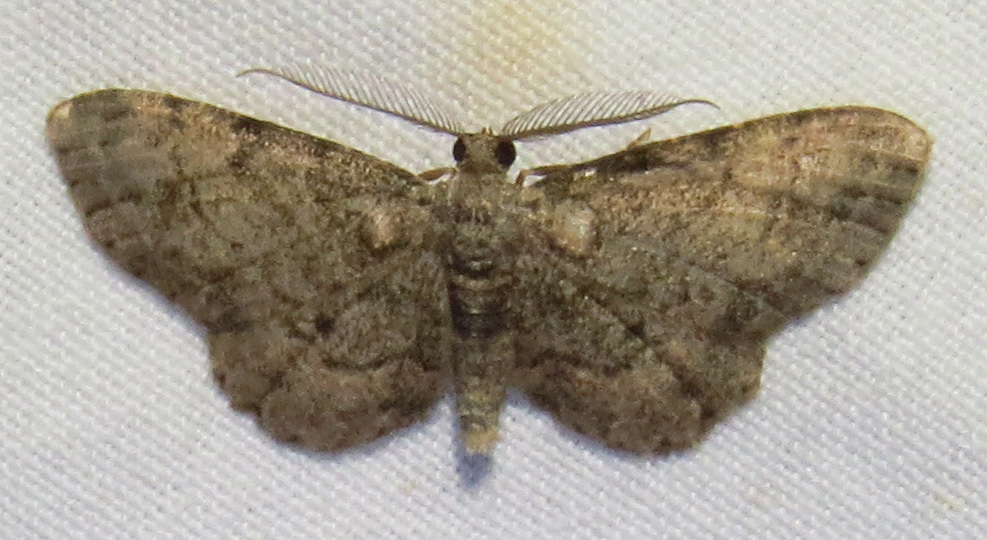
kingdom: Animalia
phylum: Arthropoda
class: Insecta
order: Lepidoptera
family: Geometridae
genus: Glenoides
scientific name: Glenoides texanaria
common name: Texas gray
